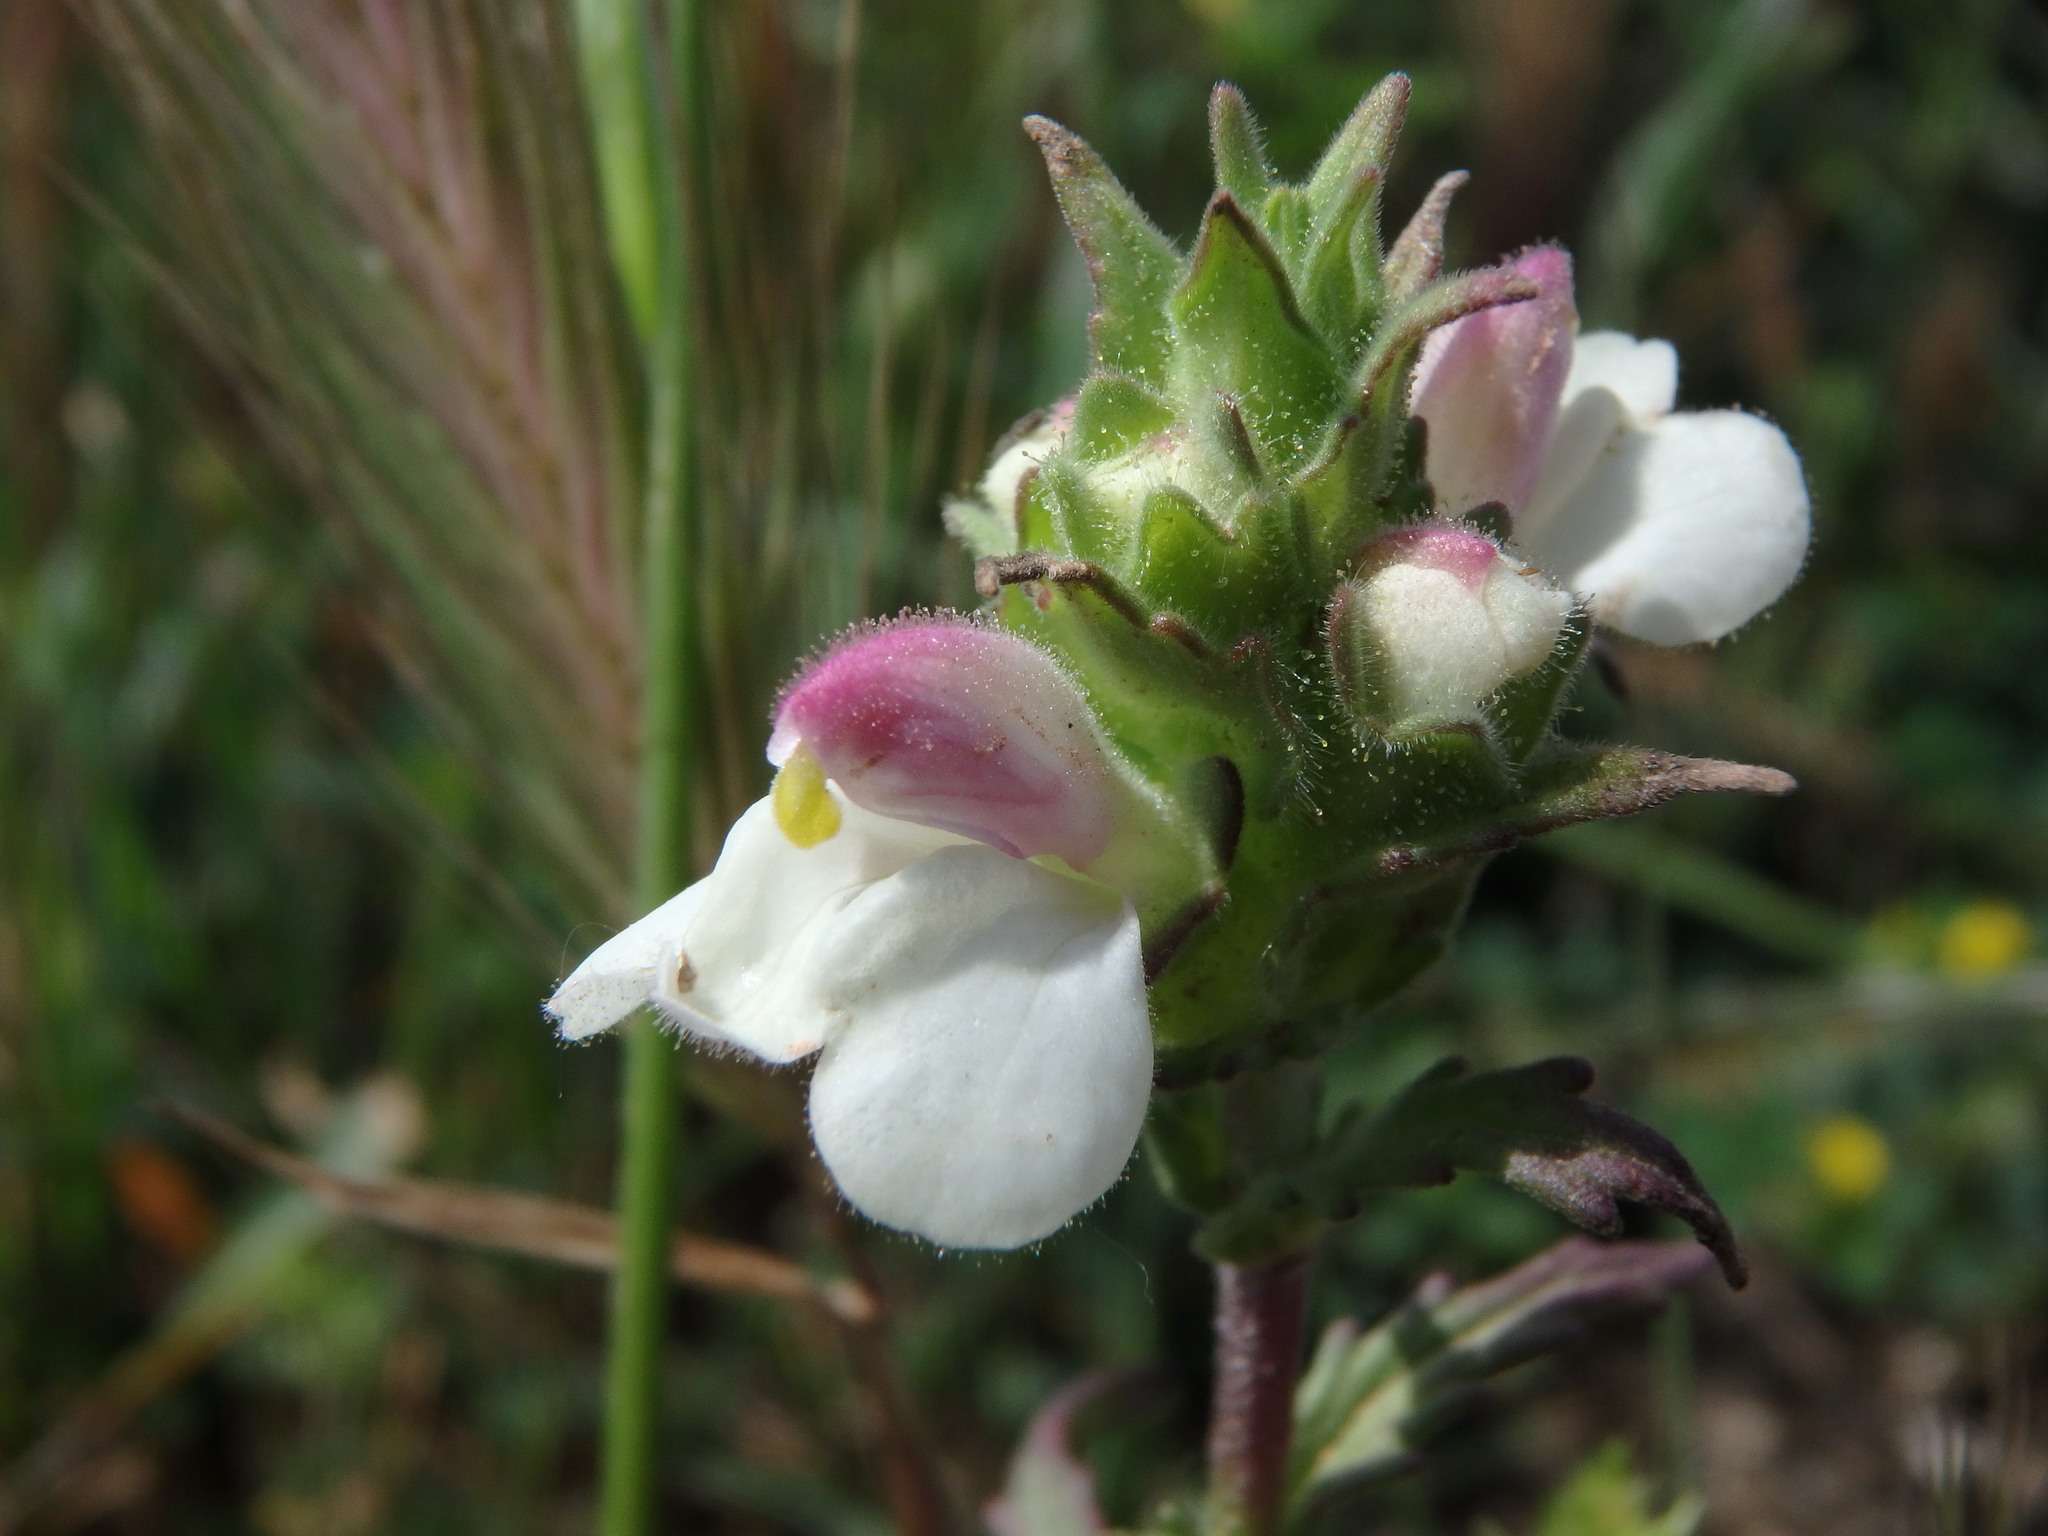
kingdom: Plantae
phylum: Tracheophyta
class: Magnoliopsida
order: Lamiales
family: Orobanchaceae
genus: Bellardia
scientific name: Bellardia trixago
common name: Mediterranean lineseed
